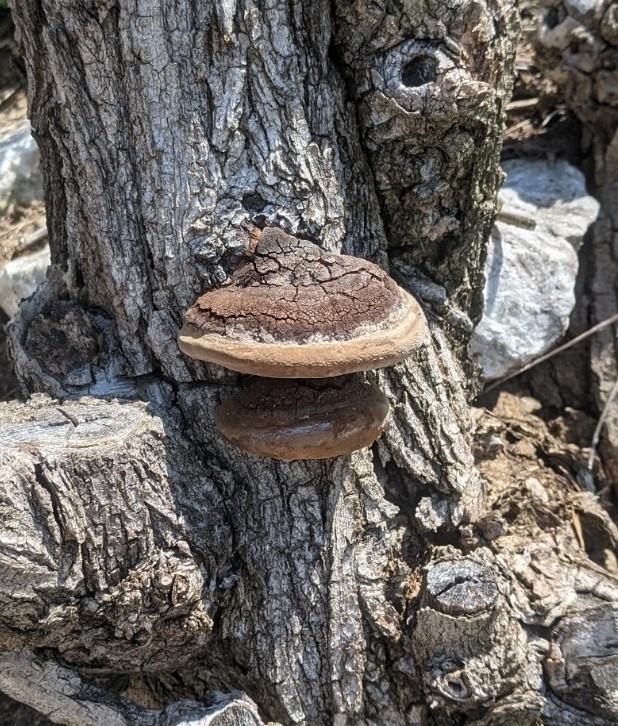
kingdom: Fungi
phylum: Basidiomycota
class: Agaricomycetes
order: Hymenochaetales
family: Hymenochaetaceae
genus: Phellinus
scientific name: Phellinus robiniae
